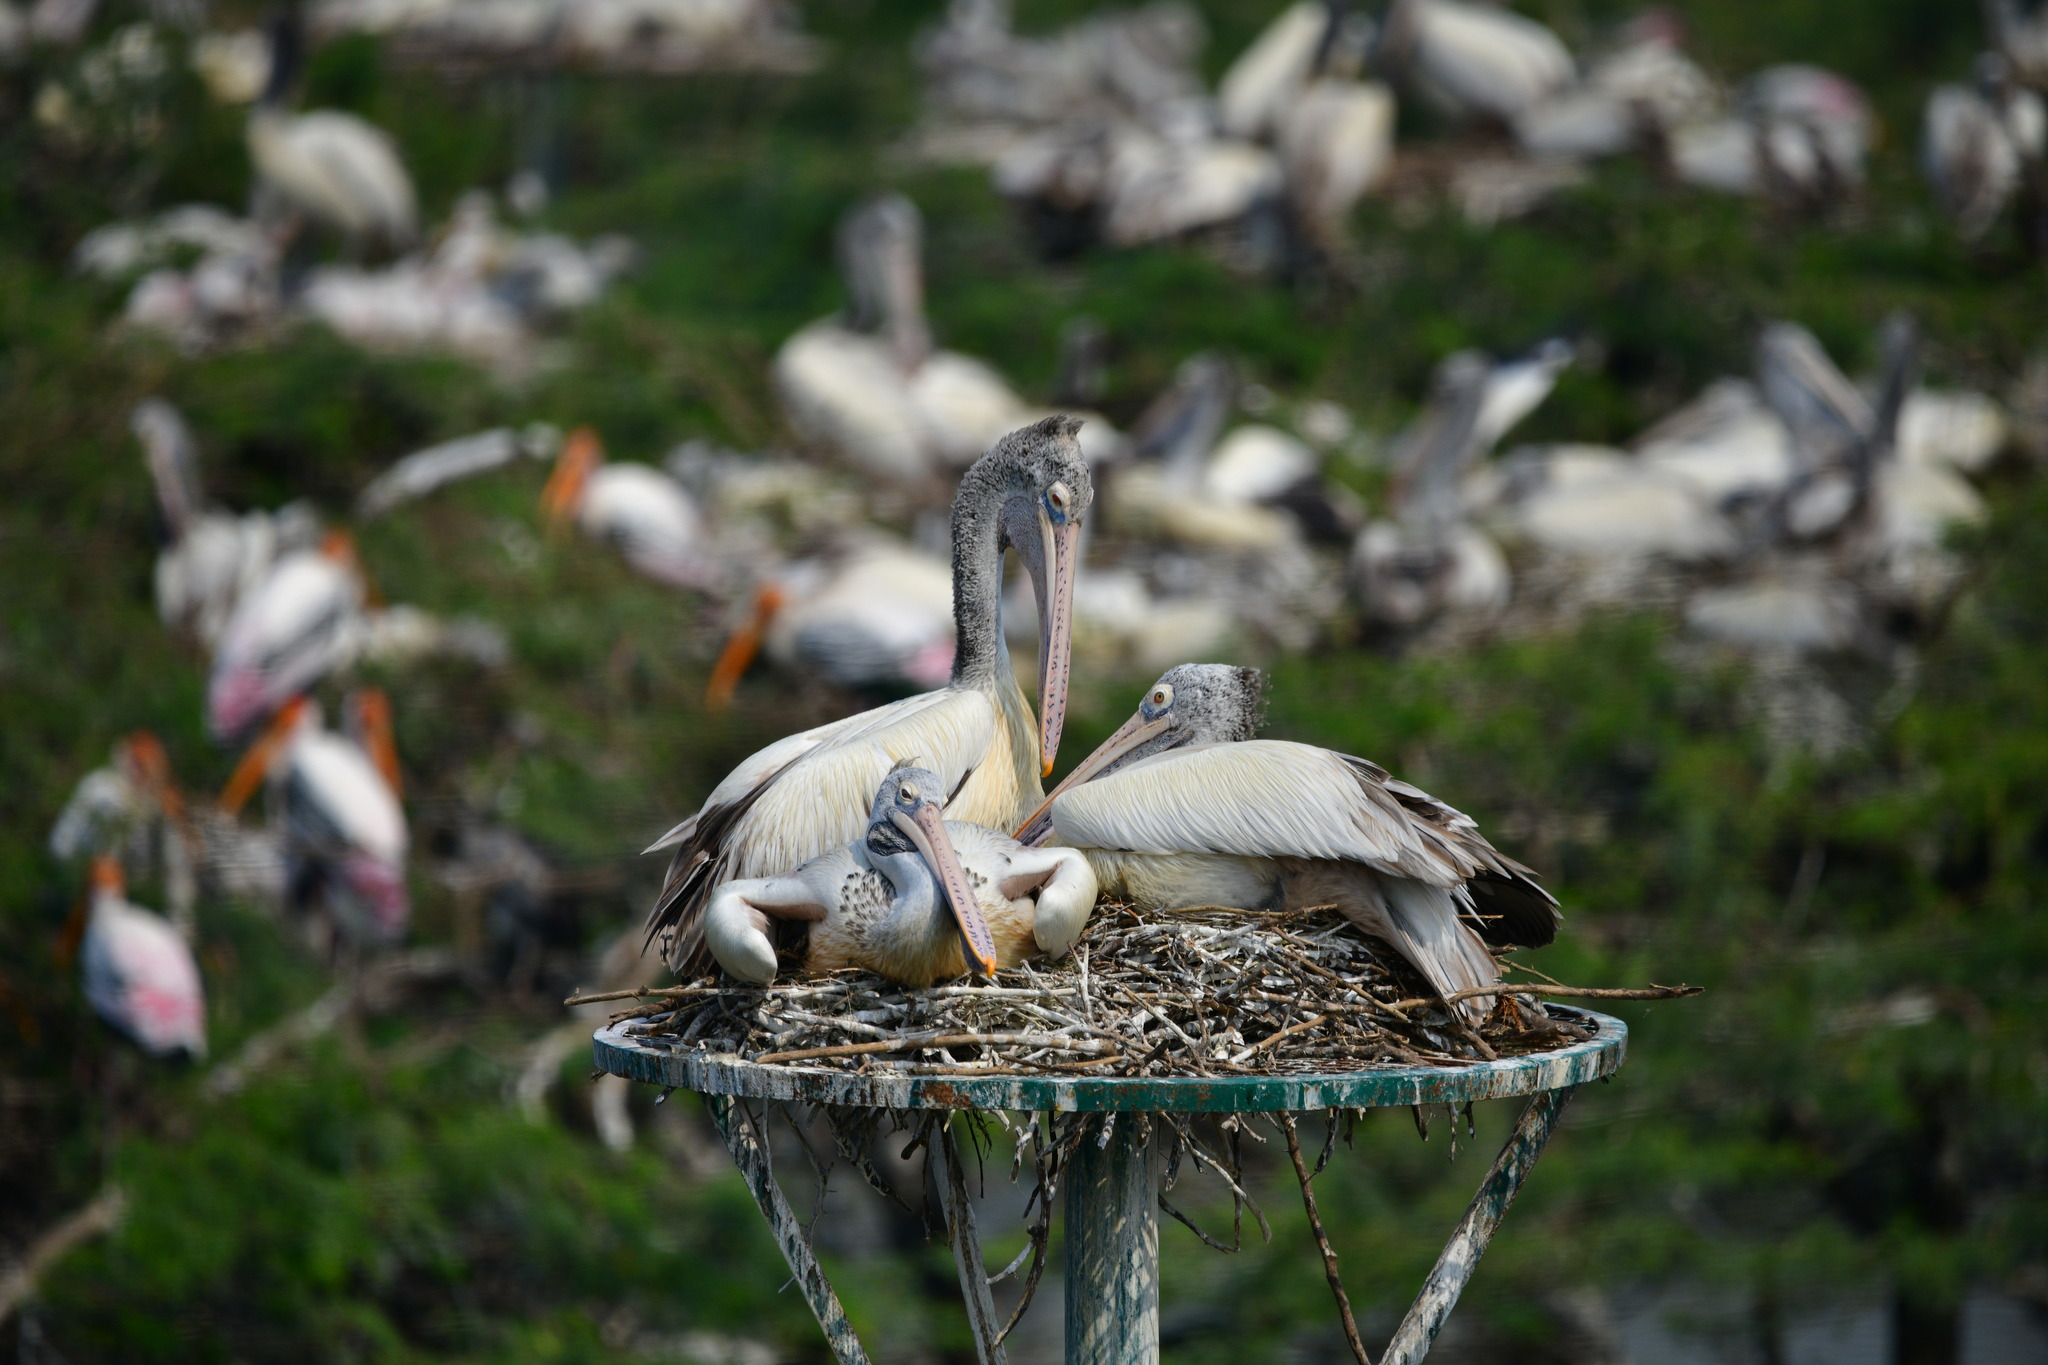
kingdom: Animalia
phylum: Chordata
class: Aves
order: Pelecaniformes
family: Pelecanidae
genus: Pelecanus
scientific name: Pelecanus philippensis
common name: Spot-billed pelican
